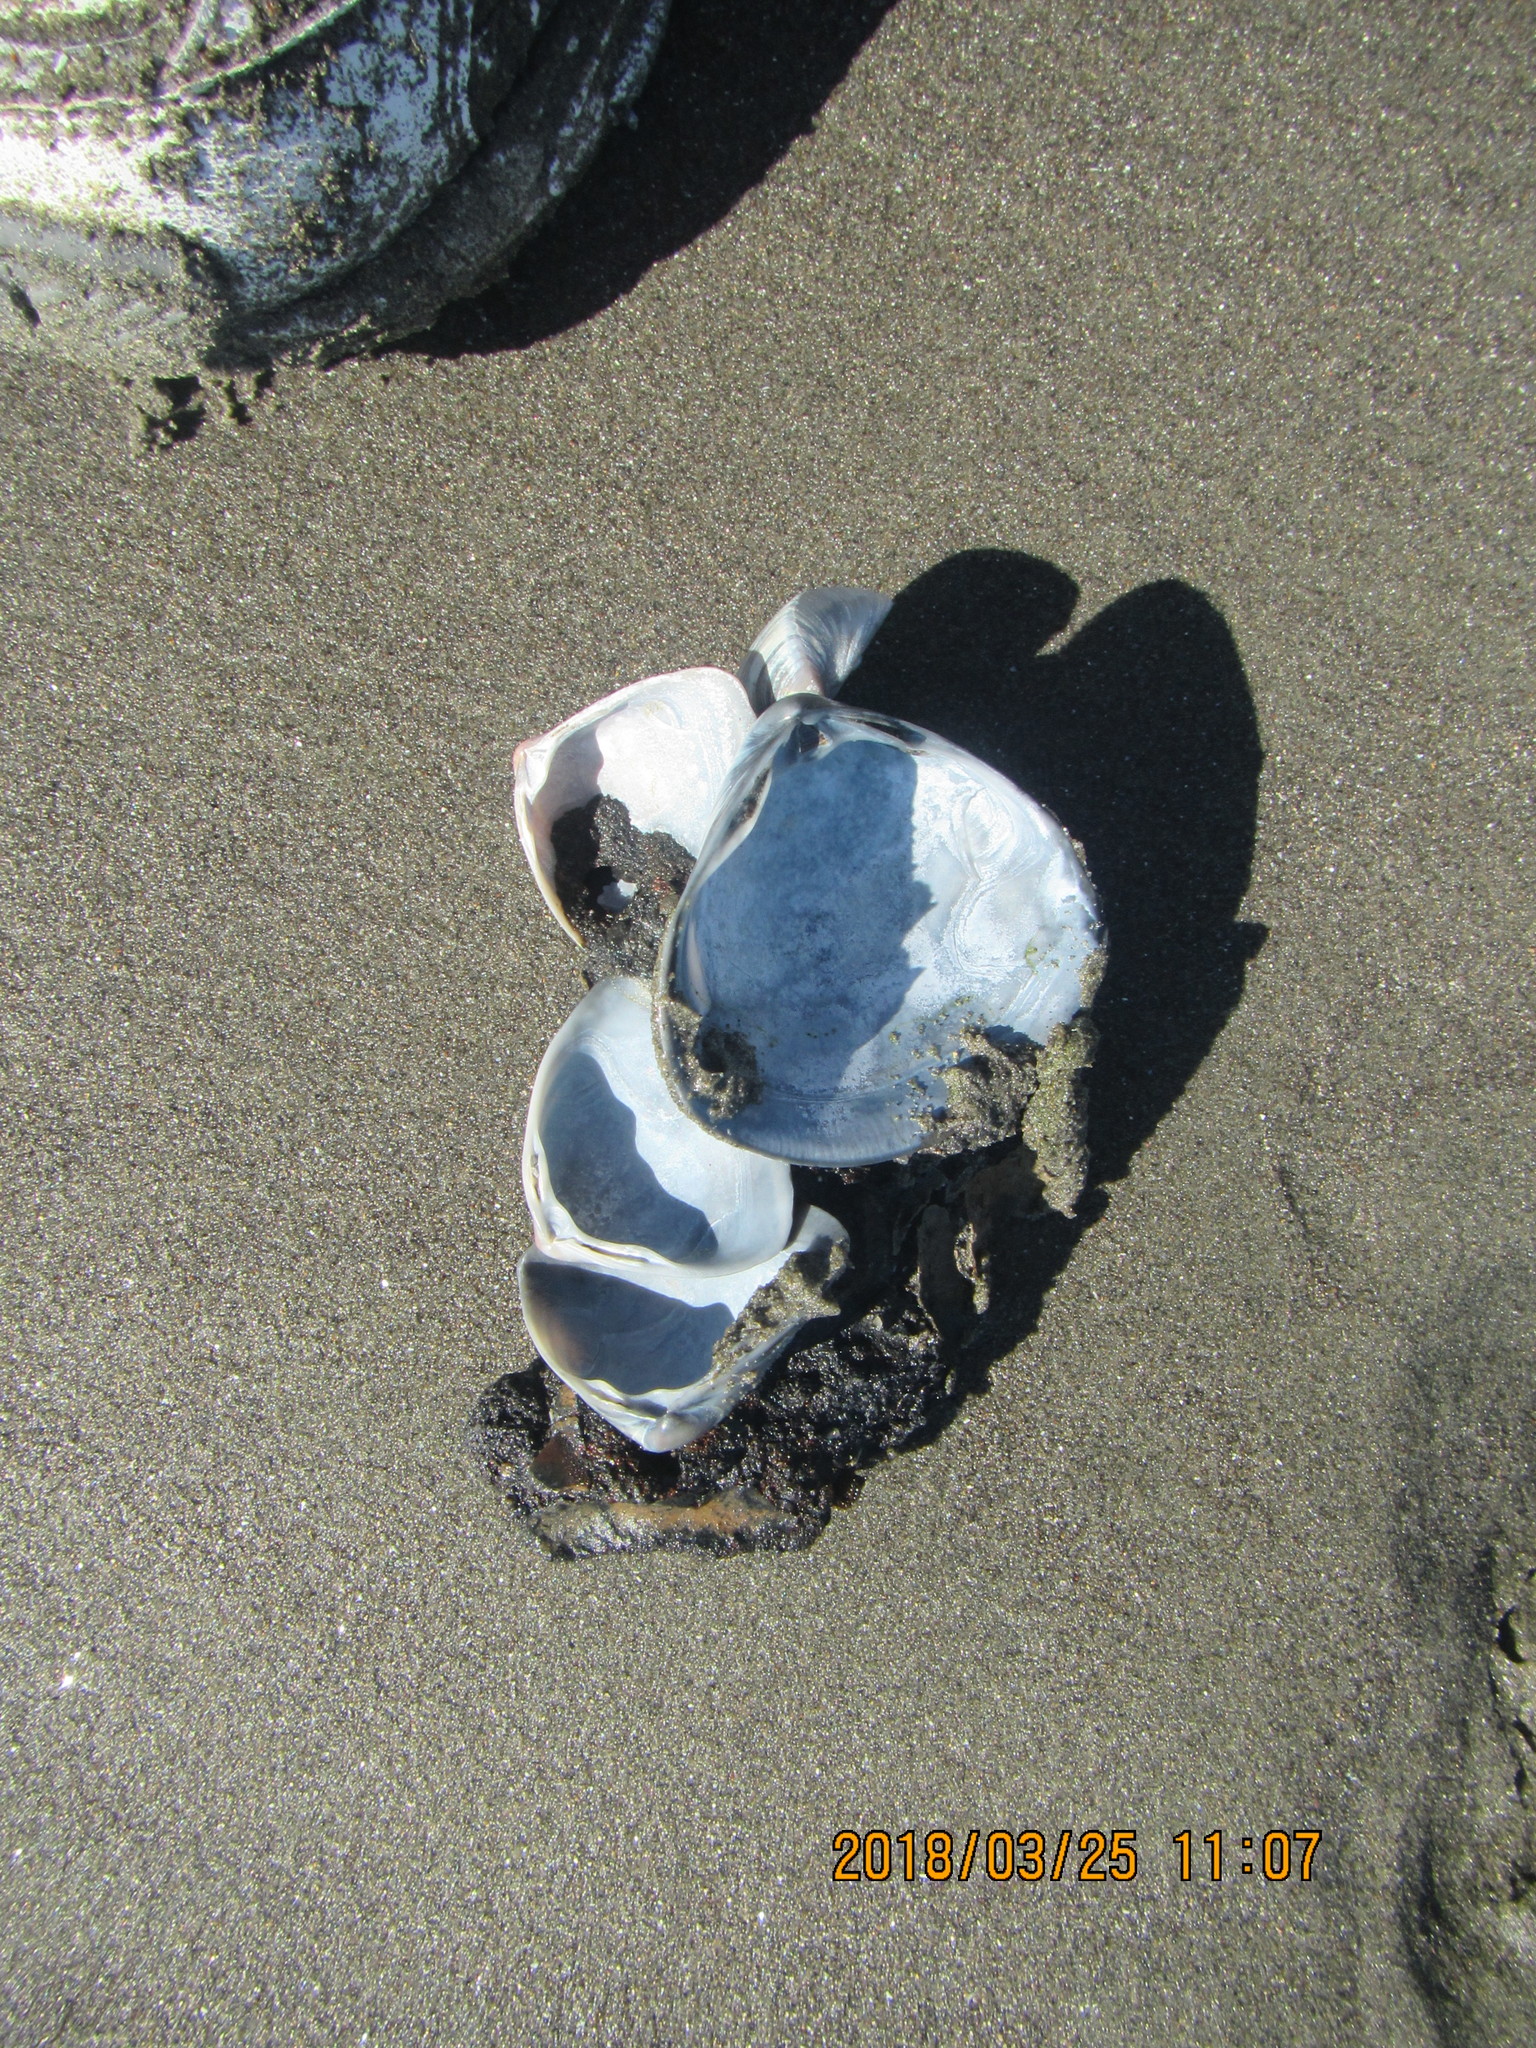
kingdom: Animalia
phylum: Mollusca
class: Bivalvia
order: Venerida
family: Mactridae
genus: Crassula
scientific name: Crassula aequilatera
